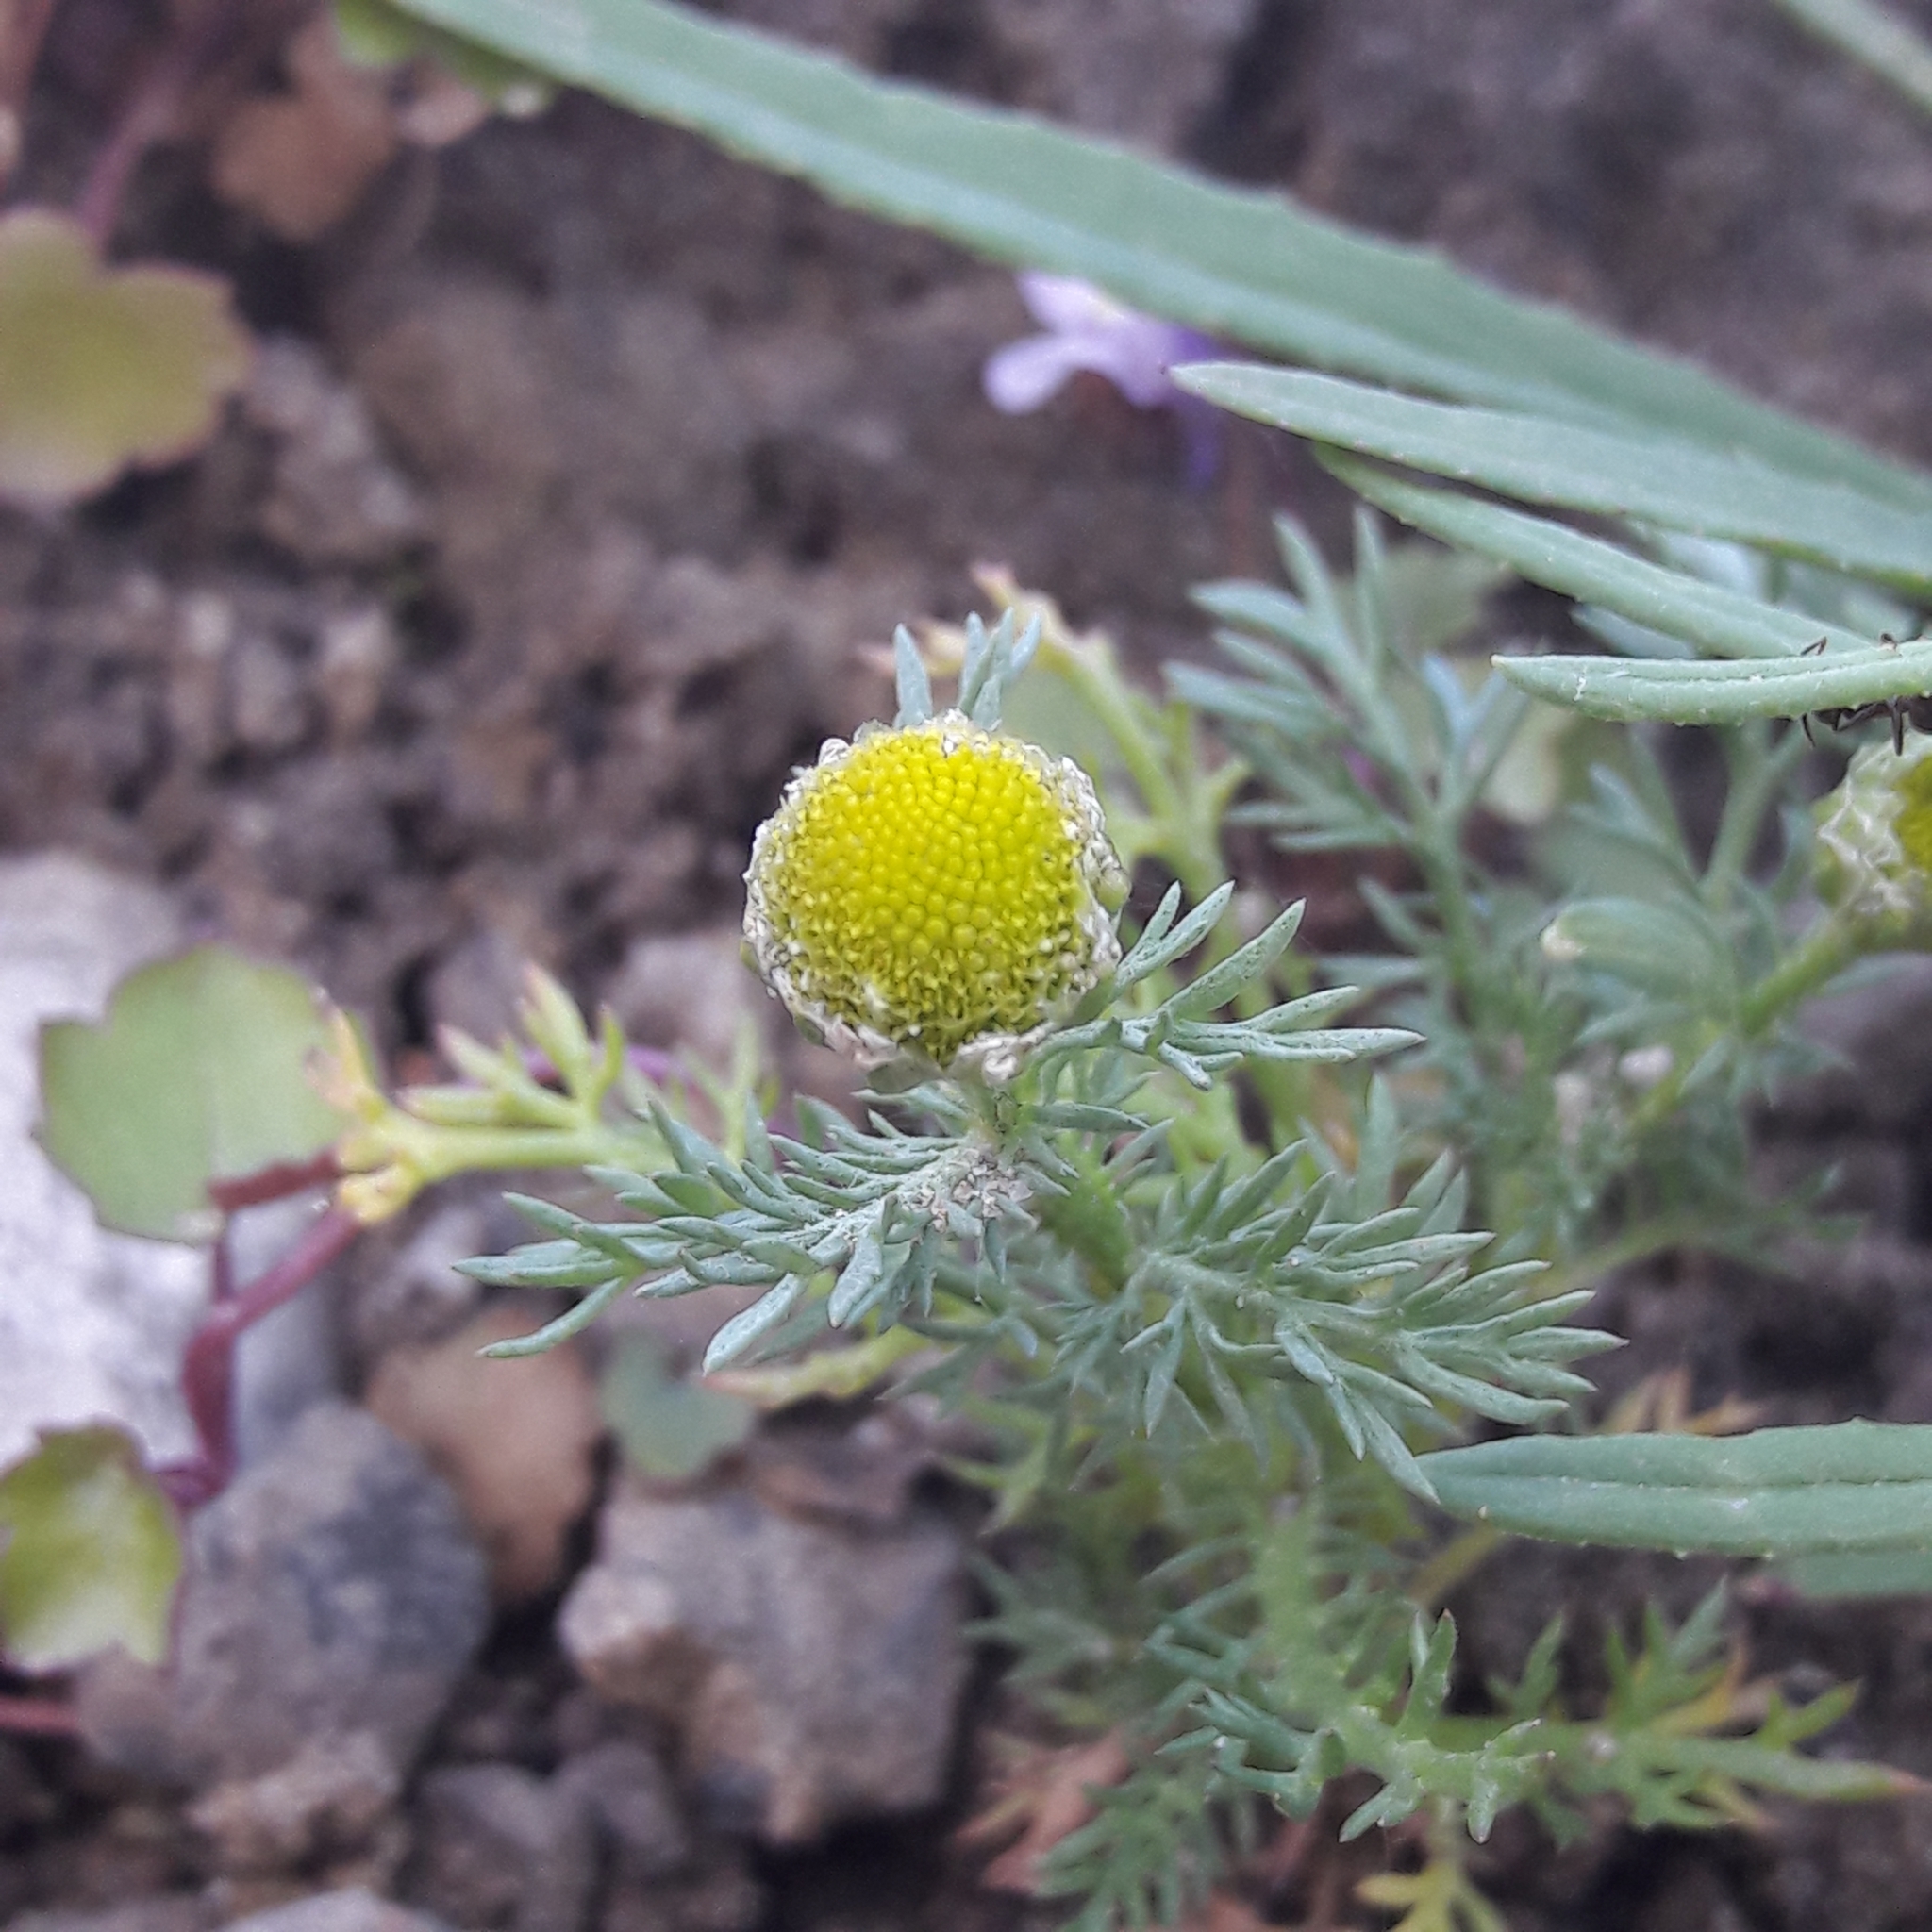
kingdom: Plantae
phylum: Tracheophyta
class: Magnoliopsida
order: Asterales
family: Asteraceae
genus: Matricaria
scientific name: Matricaria discoidea
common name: Disc mayweed
